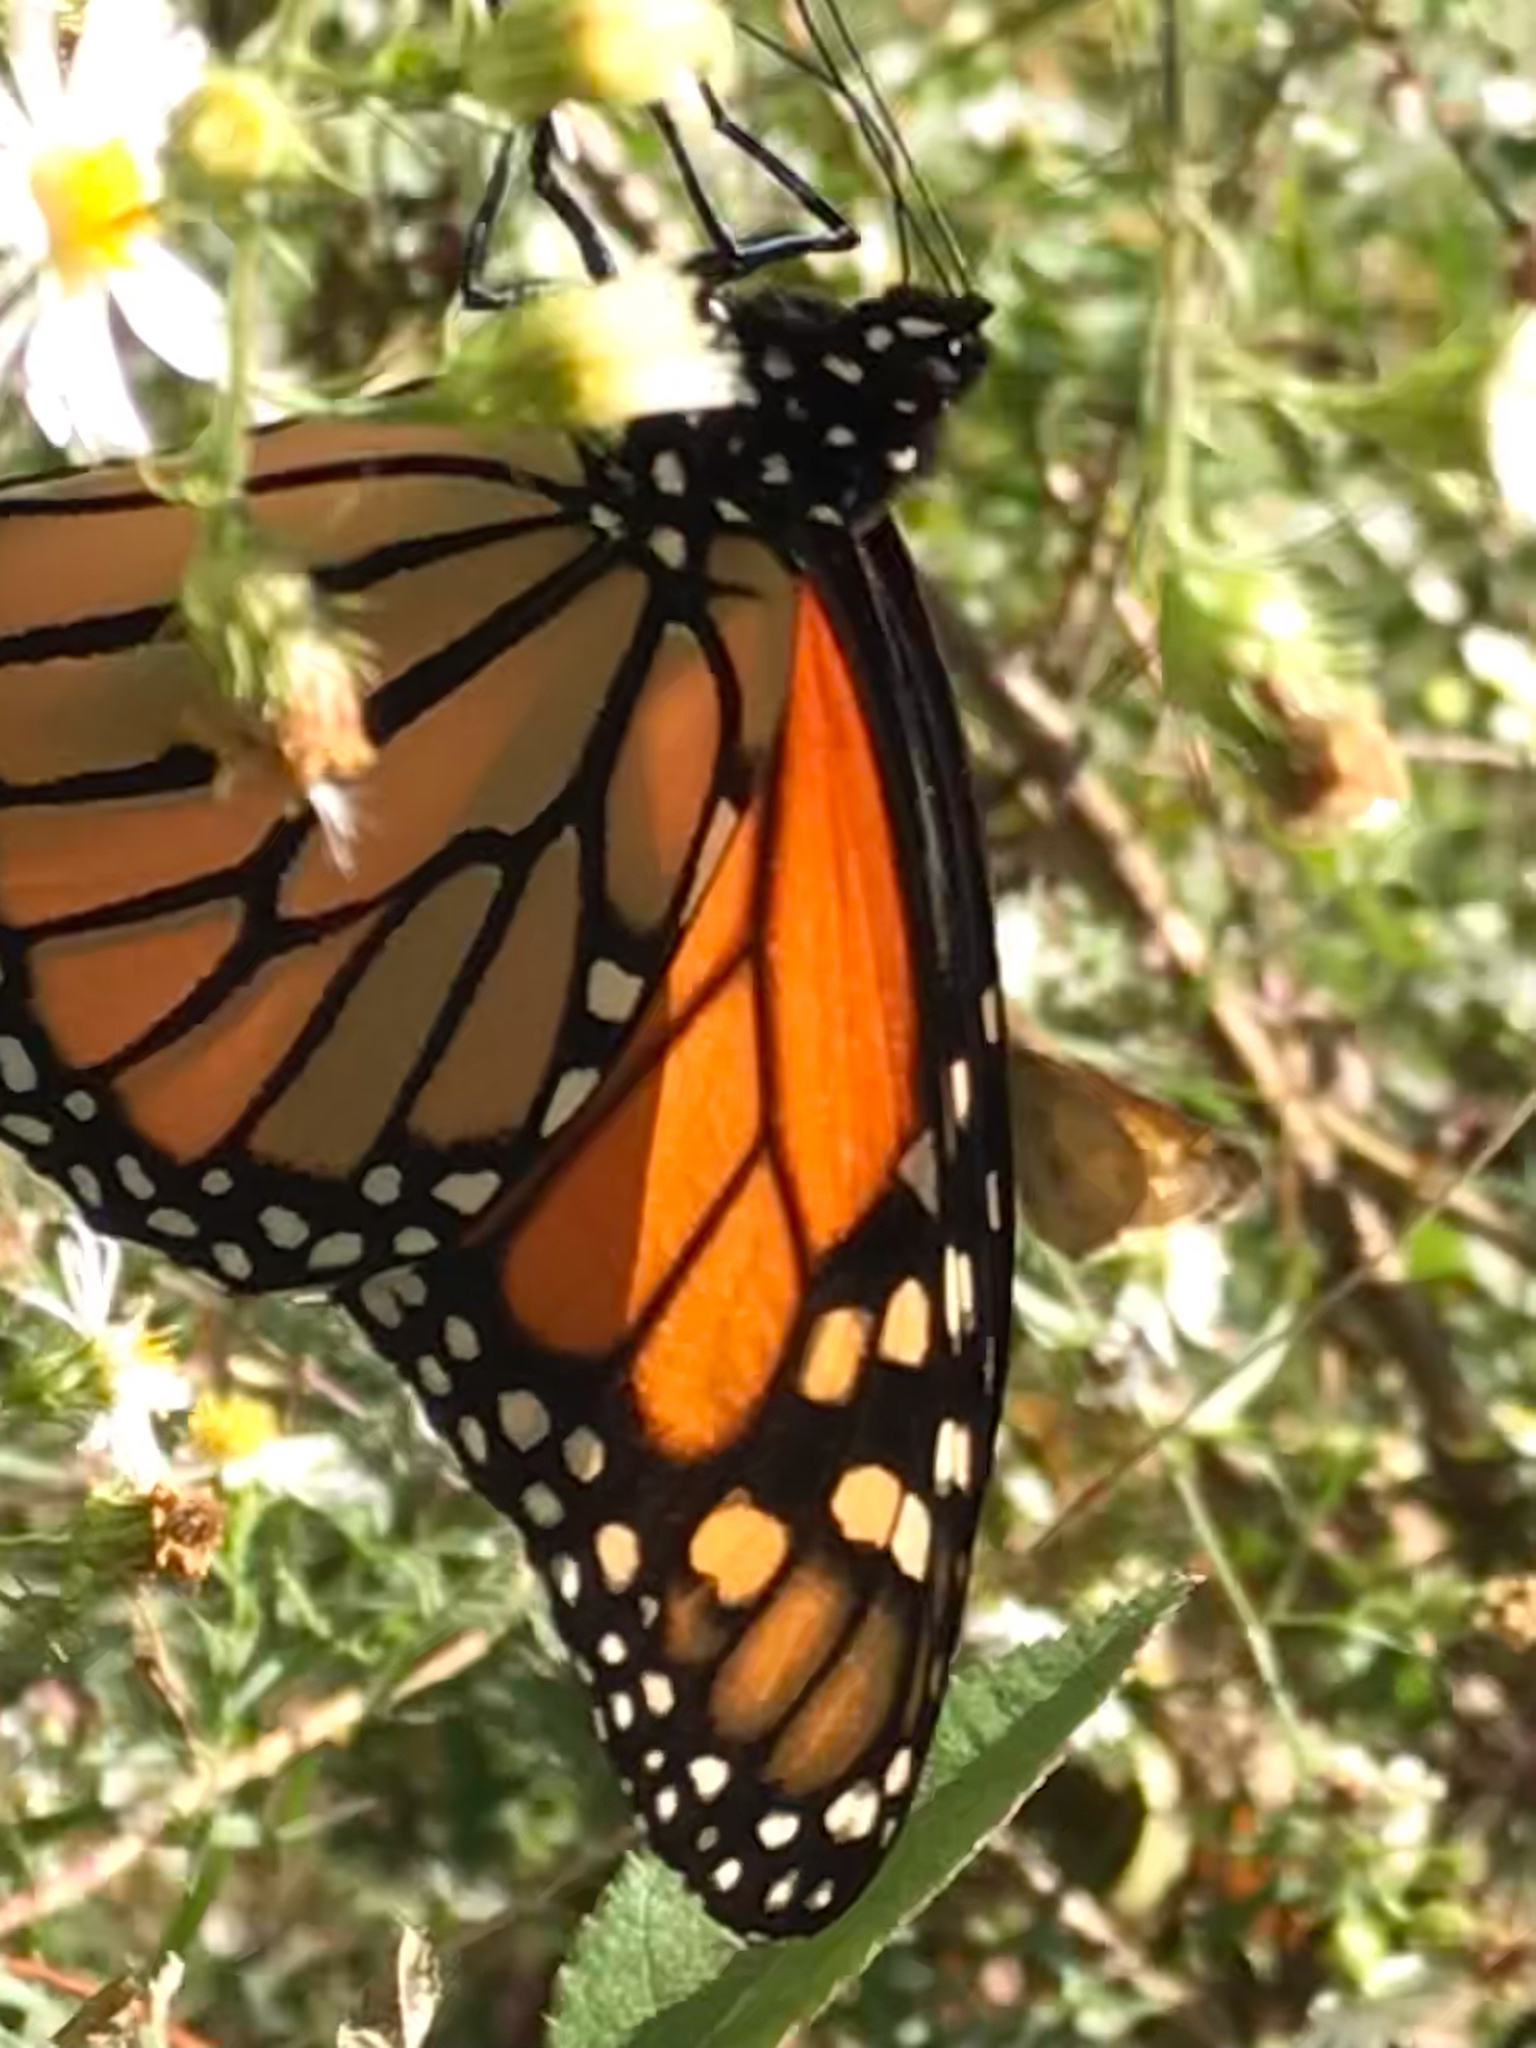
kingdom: Animalia
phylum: Arthropoda
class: Insecta
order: Lepidoptera
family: Nymphalidae
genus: Danaus
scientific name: Danaus plexippus
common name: Monarch
